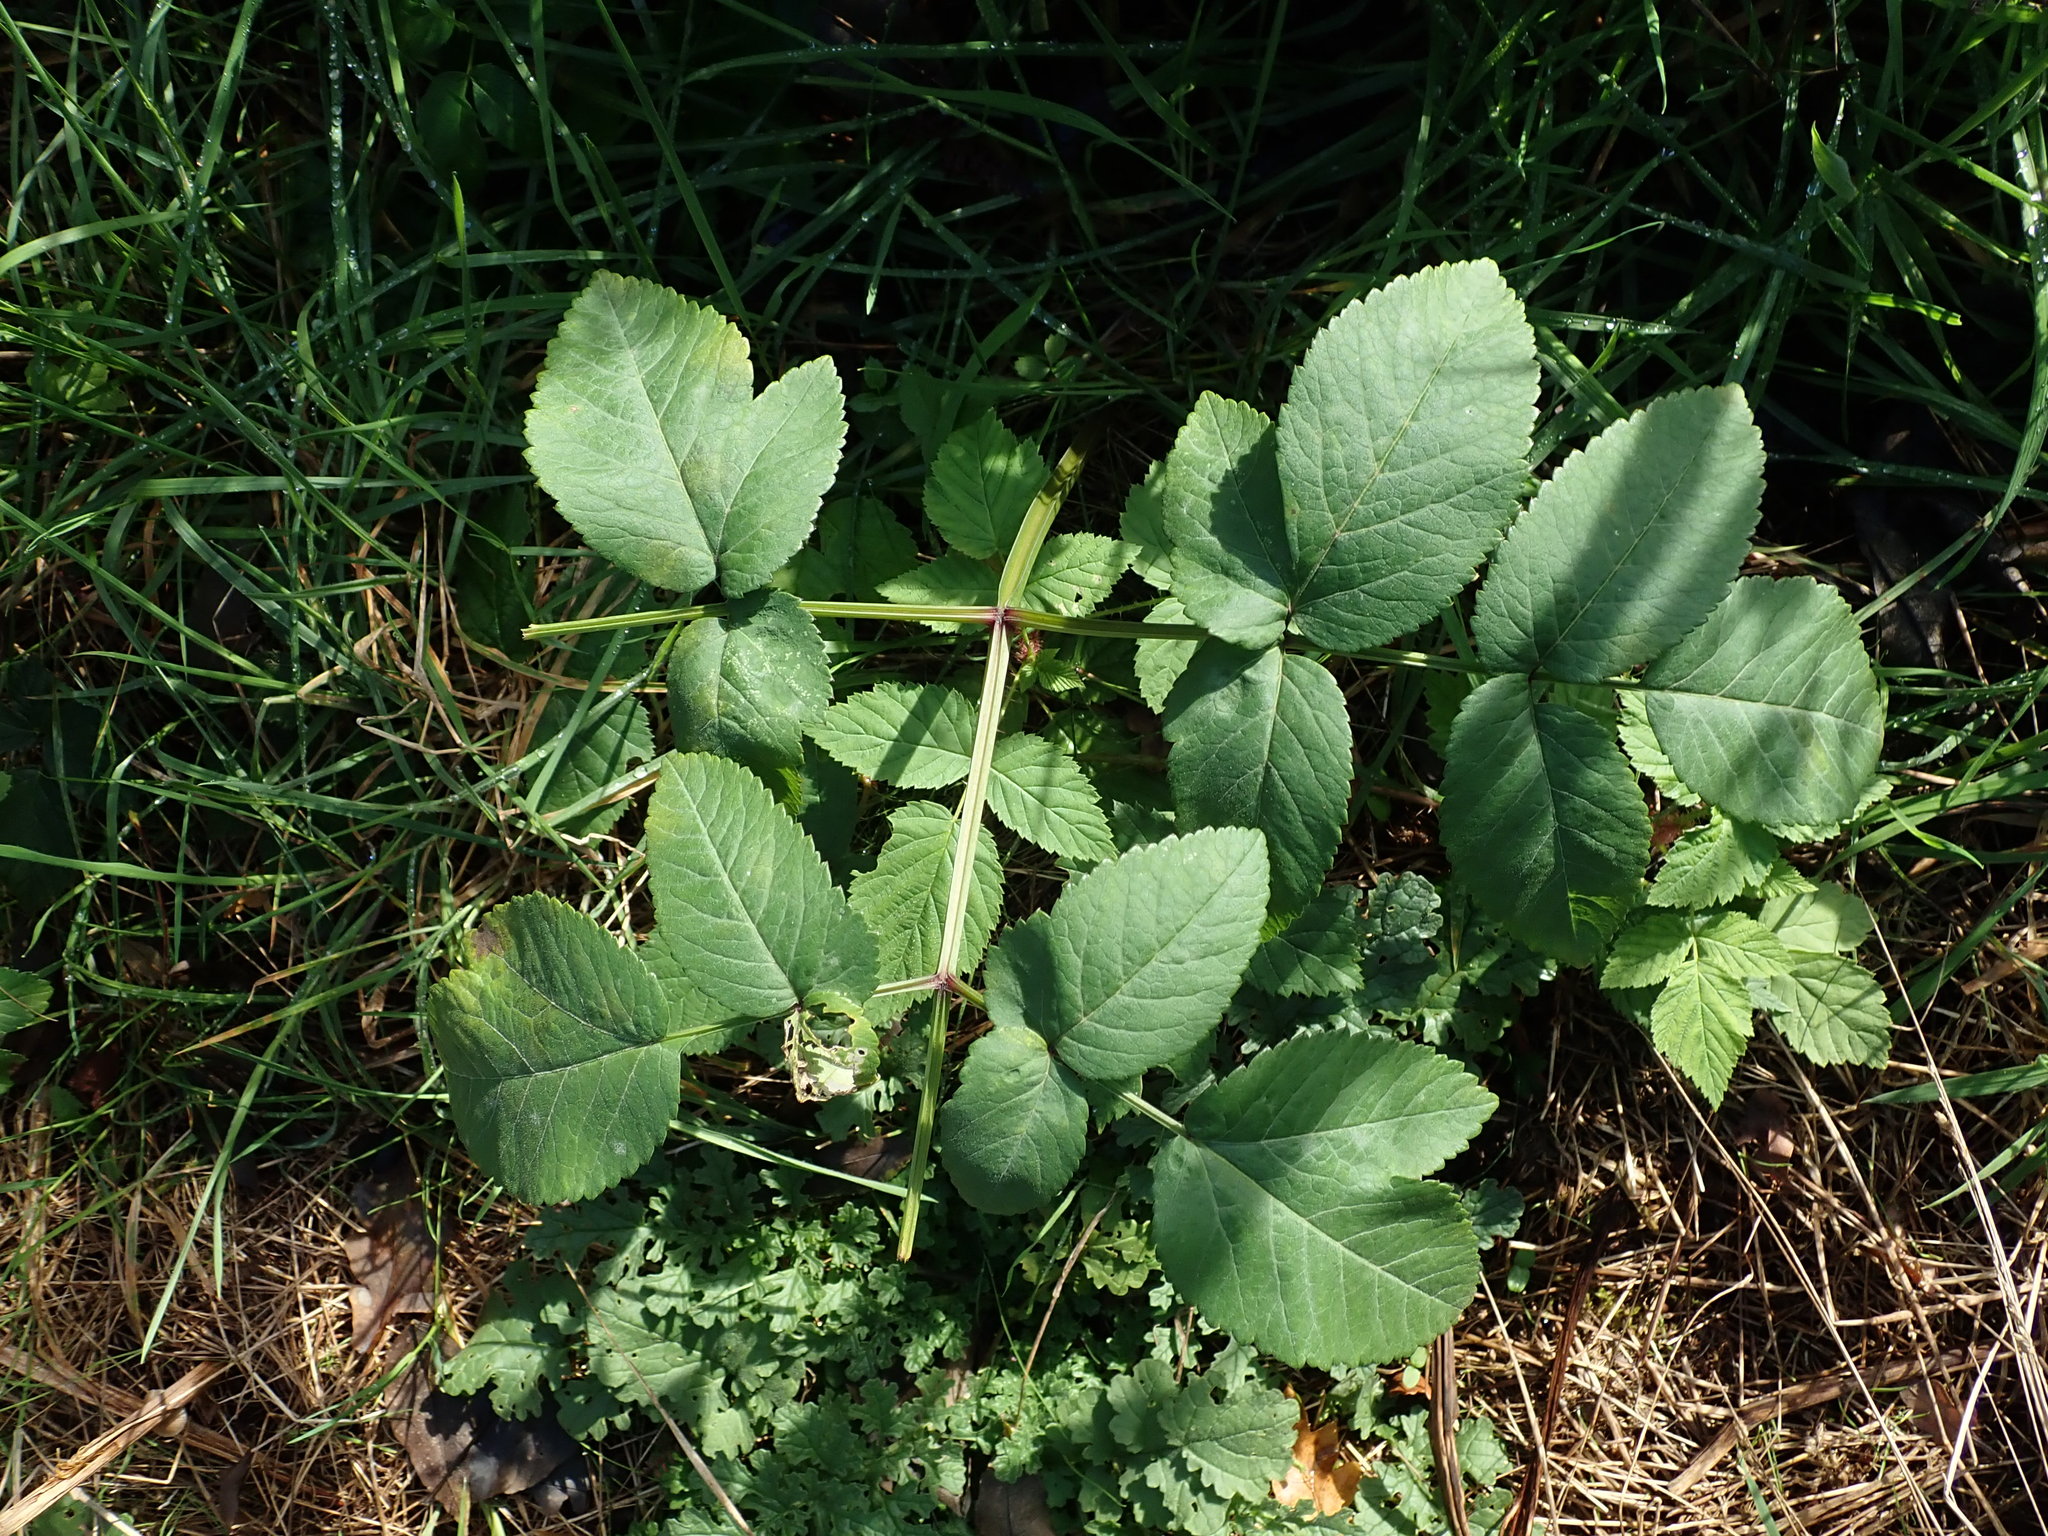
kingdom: Plantae
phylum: Tracheophyta
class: Magnoliopsida
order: Apiales
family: Apiaceae
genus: Angelica
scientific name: Angelica sylvestris
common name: Wild angelica
